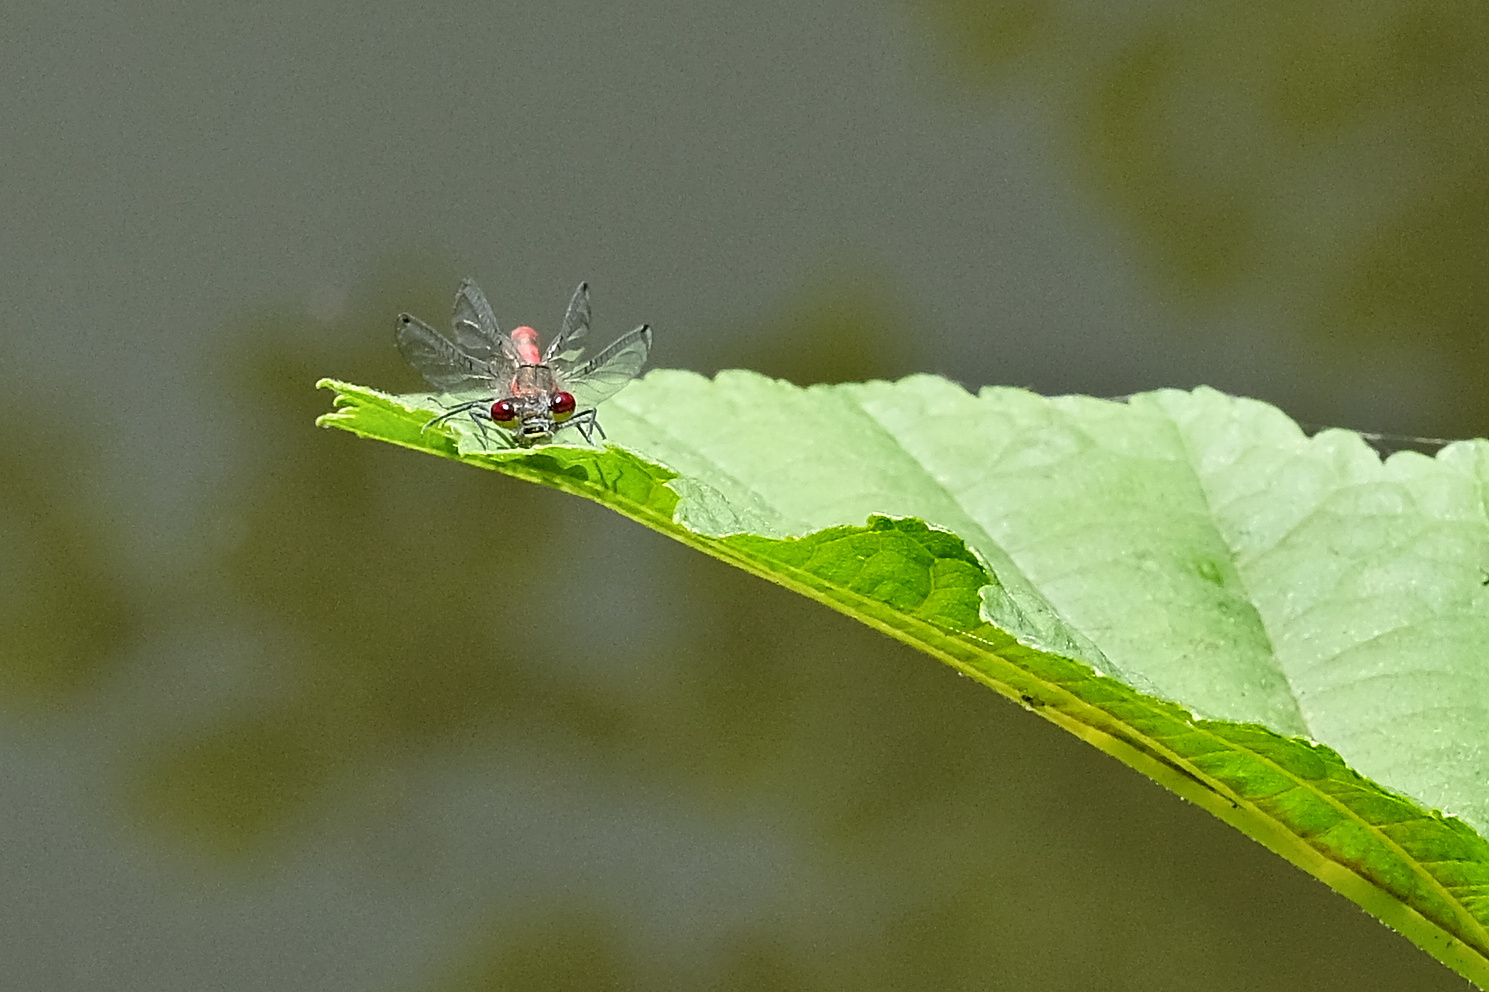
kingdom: Animalia
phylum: Arthropoda
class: Insecta
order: Odonata
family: Coenagrionidae
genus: Pyrrhosoma
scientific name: Pyrrhosoma nymphula
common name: Large red damsel
